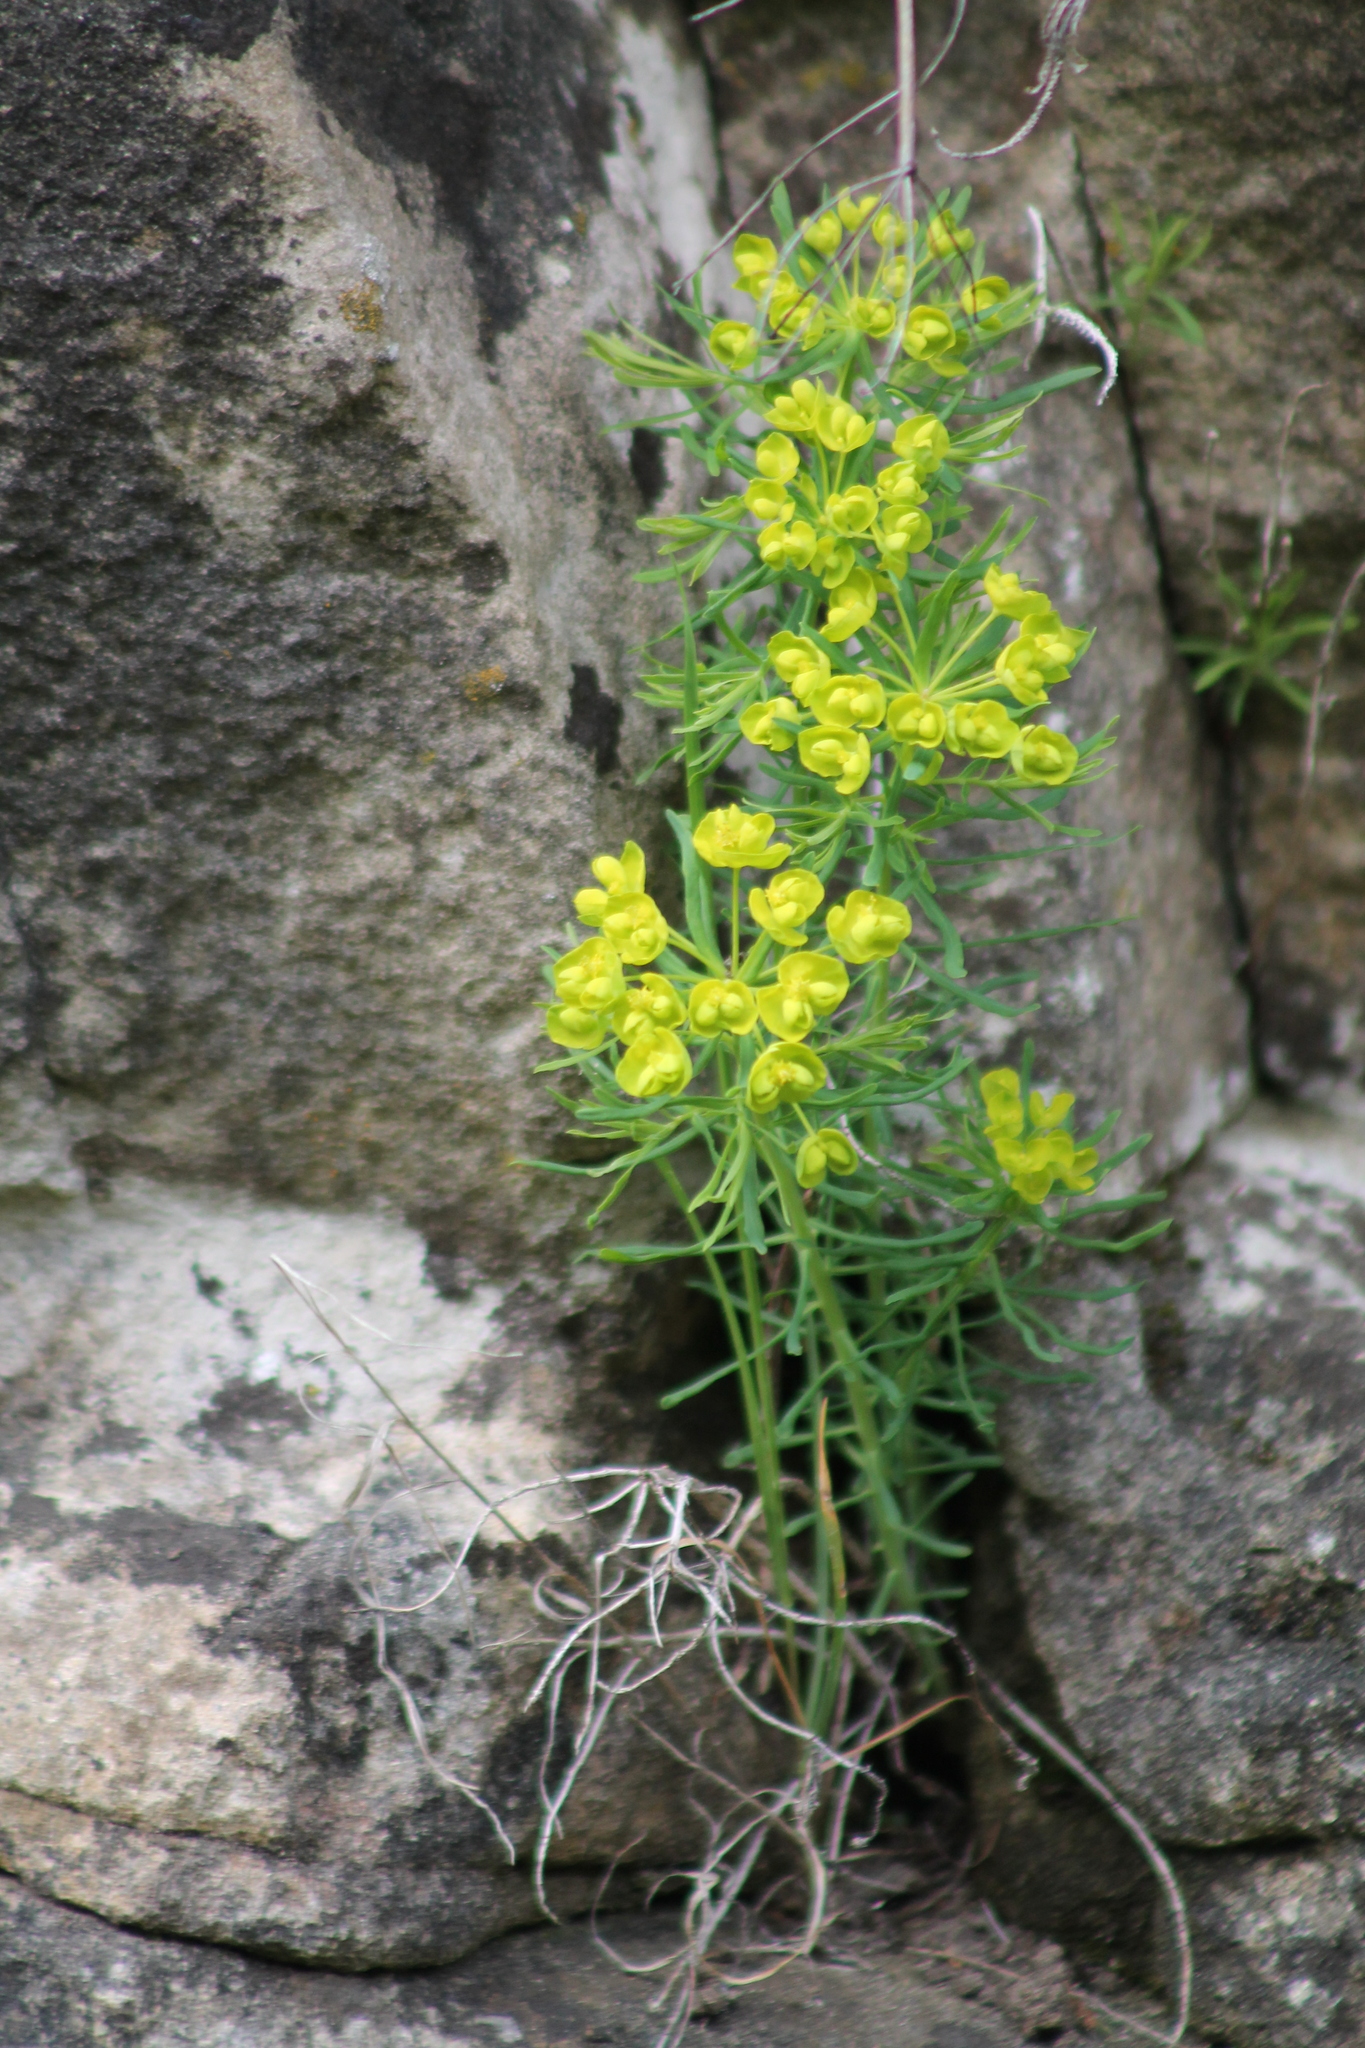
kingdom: Plantae
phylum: Tracheophyta
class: Magnoliopsida
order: Malpighiales
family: Euphorbiaceae
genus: Euphorbia
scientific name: Euphorbia cyparissias
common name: Cypress spurge
